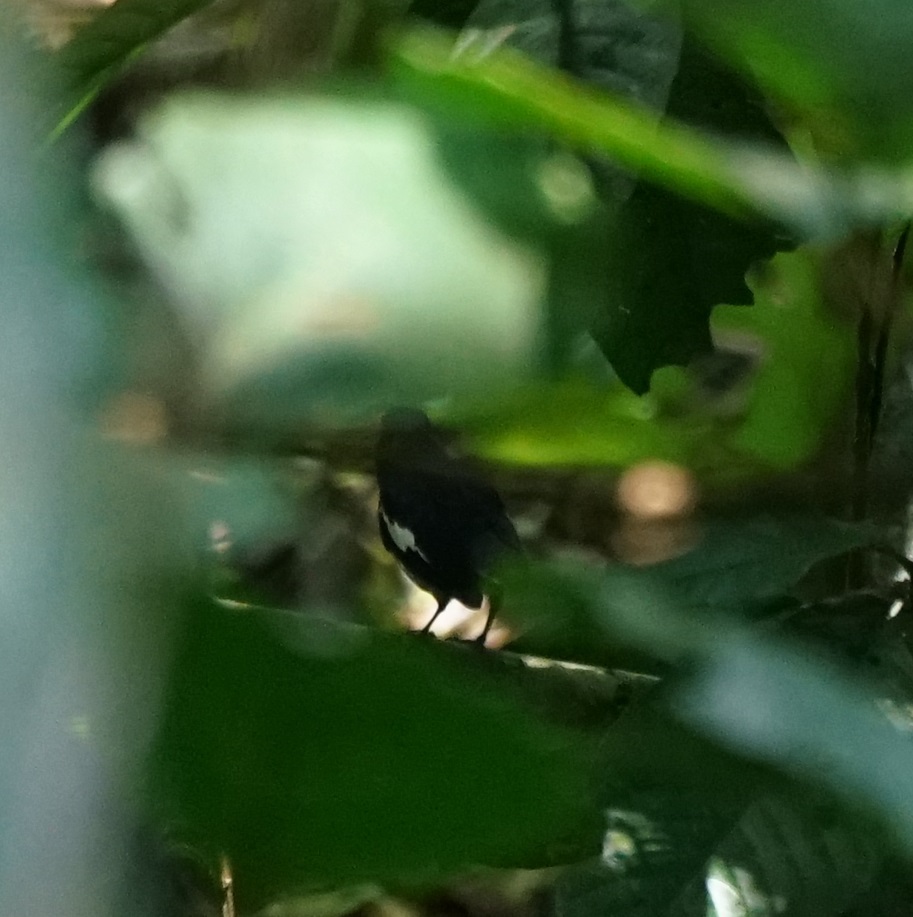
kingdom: Animalia
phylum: Chordata
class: Aves
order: Passeriformes
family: Muscicapidae
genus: Copsychus
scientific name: Copsychus saularis
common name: Oriental magpie-robin
